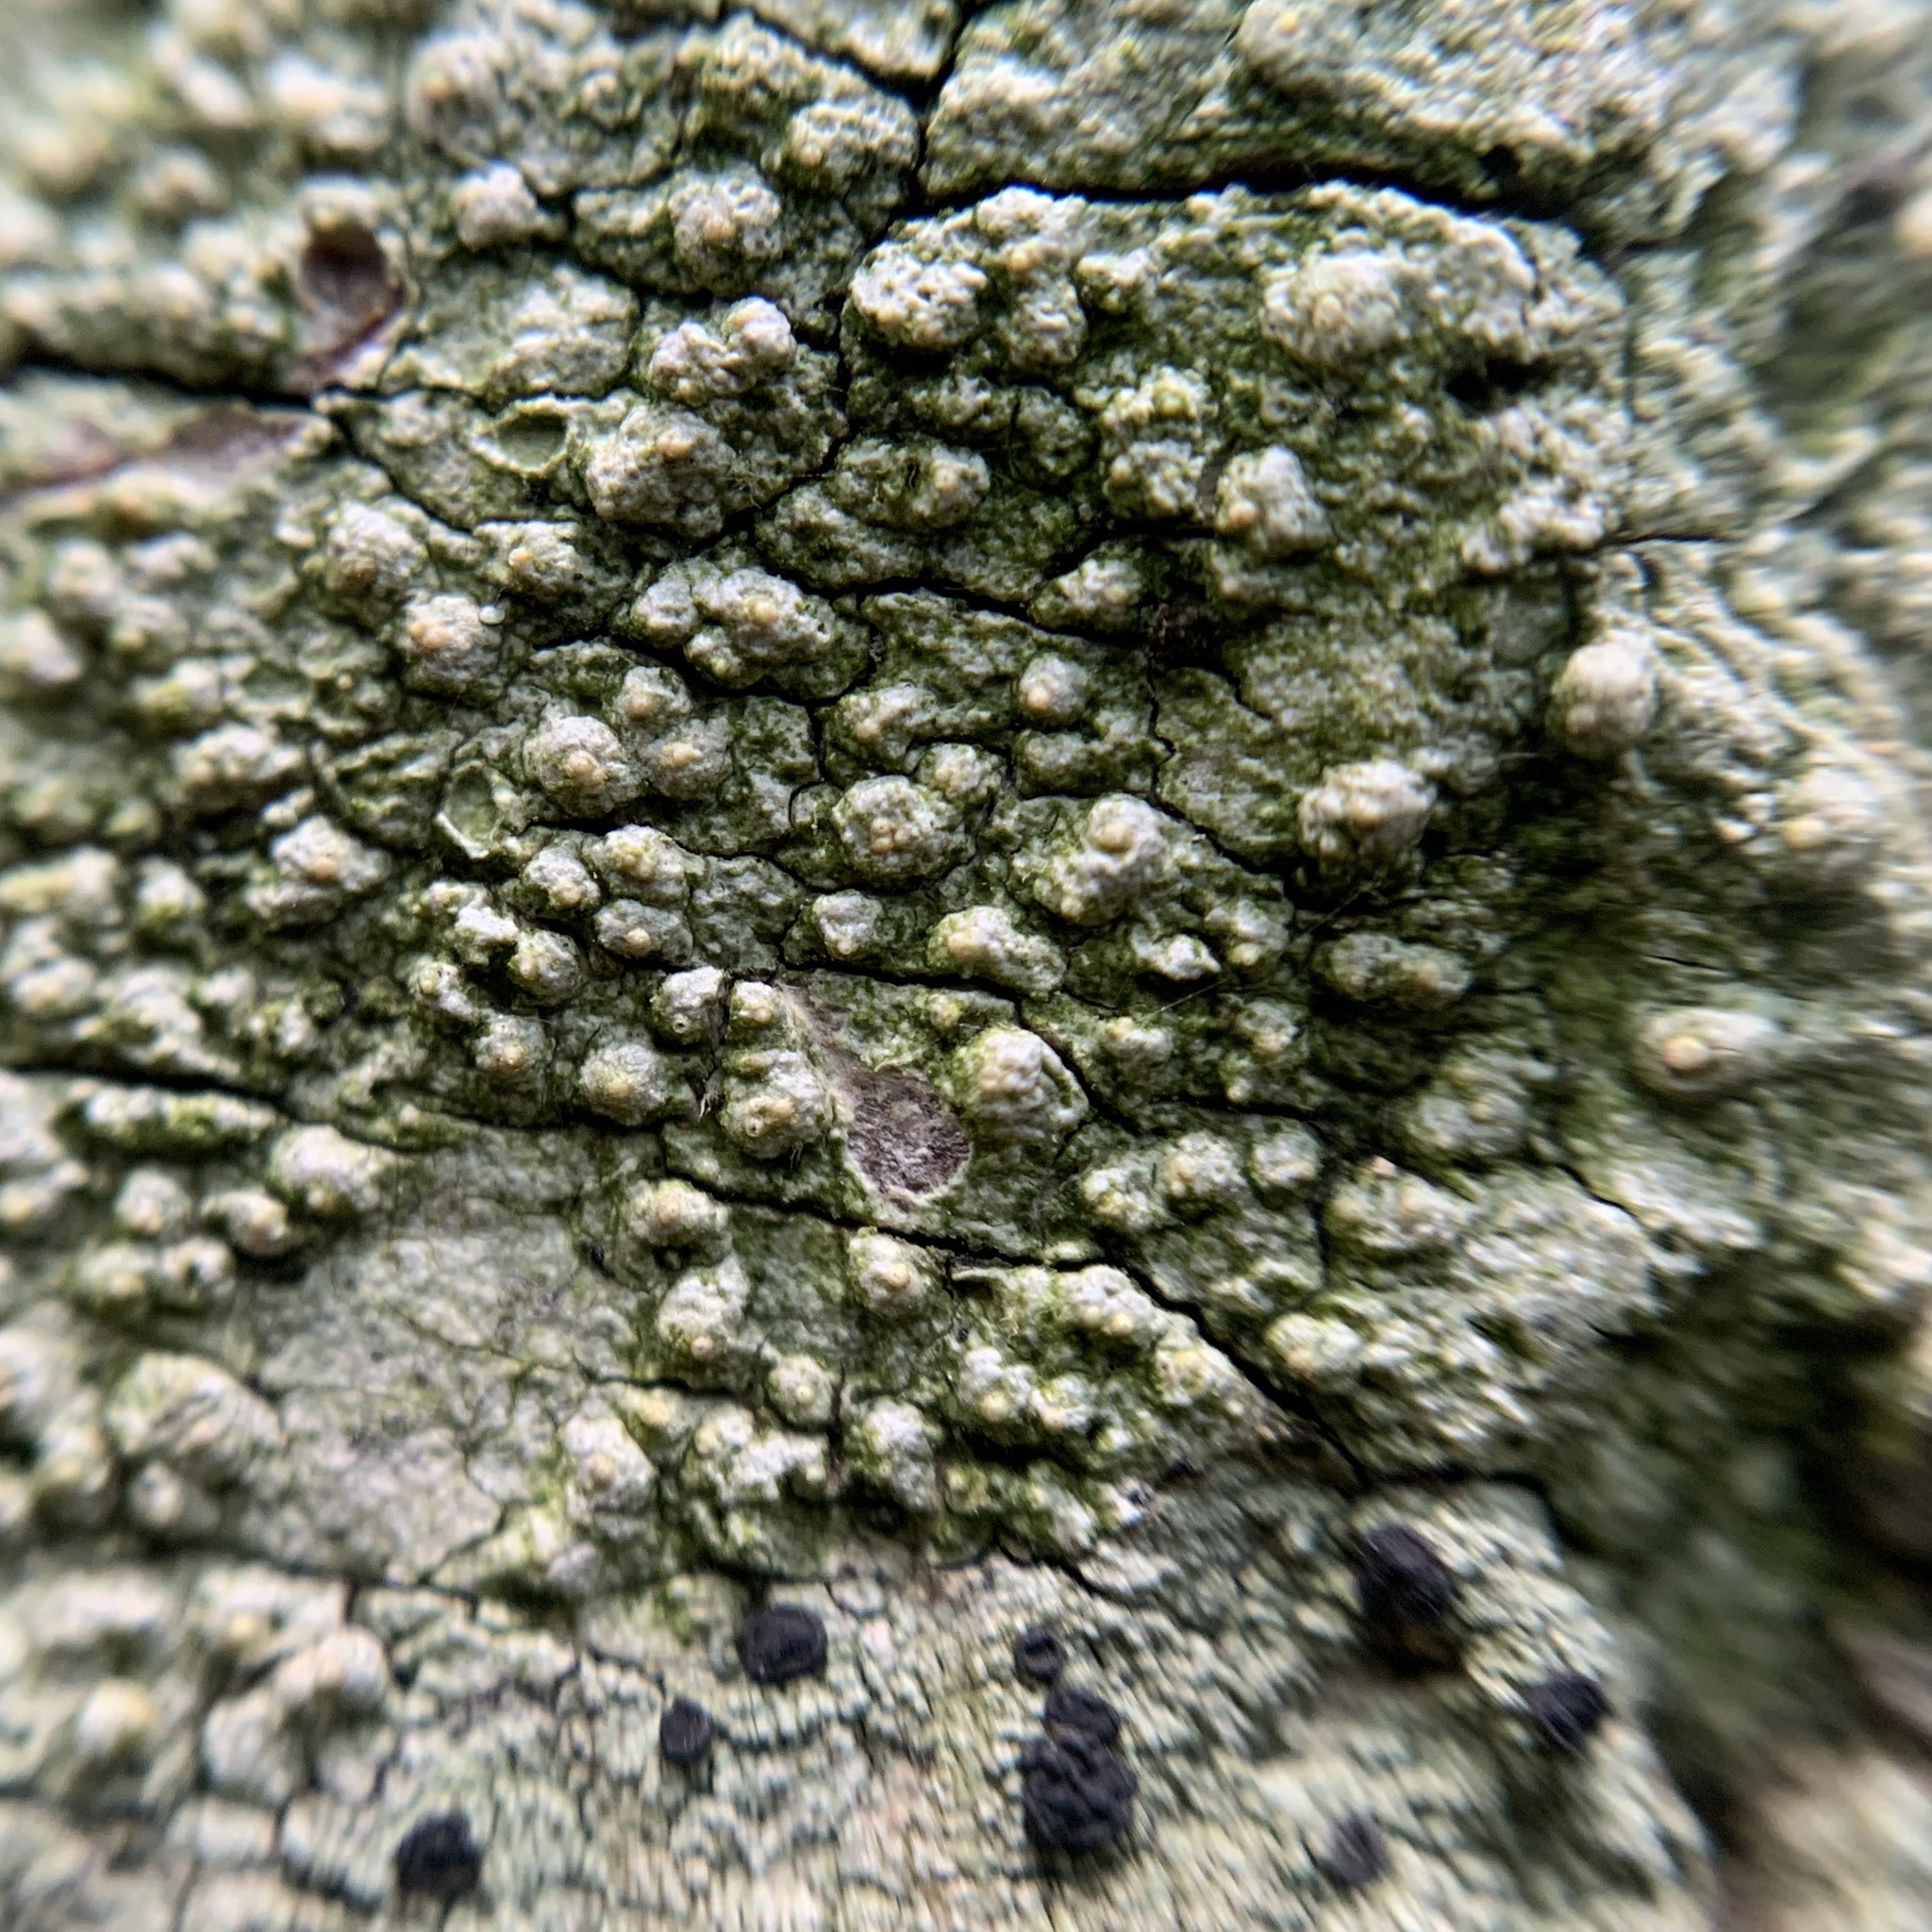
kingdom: Fungi
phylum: Ascomycota
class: Lecanoromycetes
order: Pertusariales
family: Pertusariaceae
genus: Pertusaria
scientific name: Pertusaria texana
